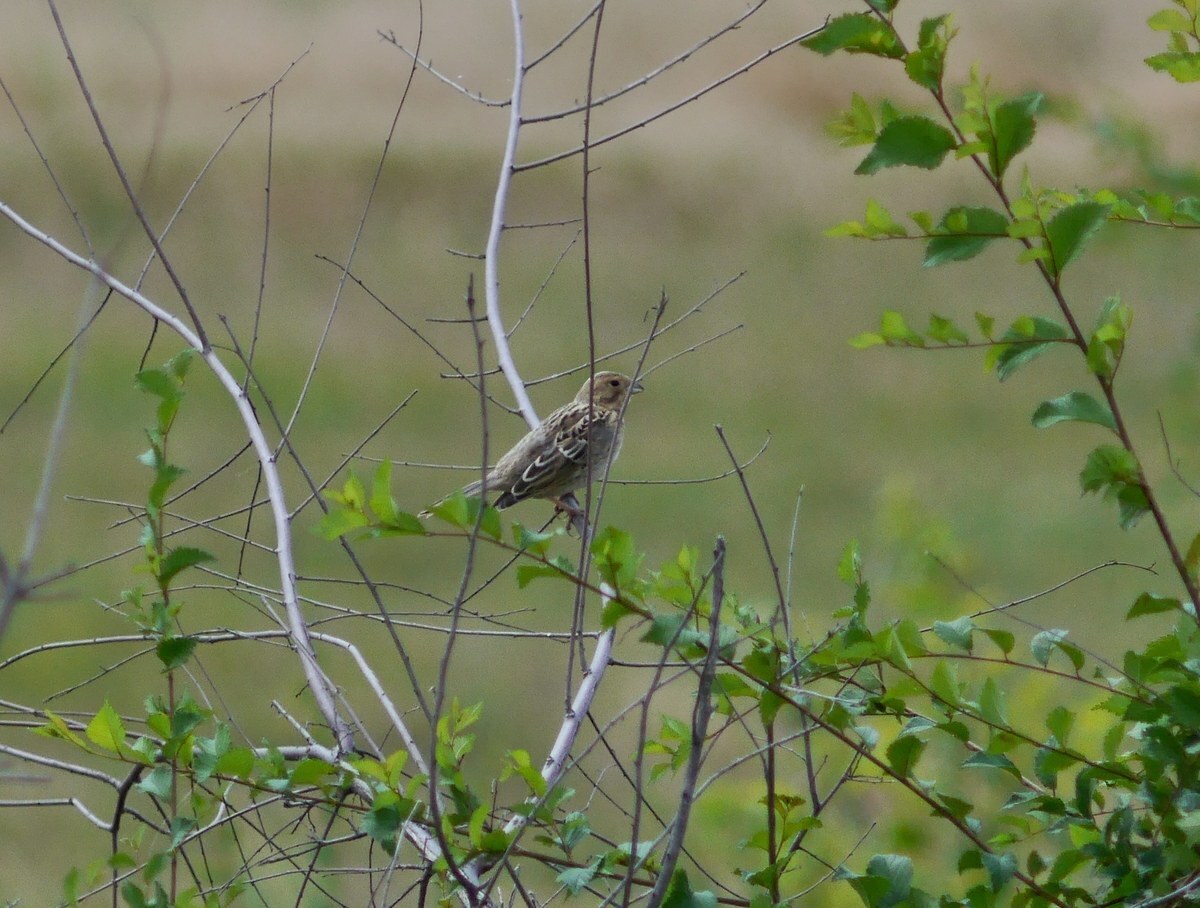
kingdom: Animalia
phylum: Chordata
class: Aves
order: Passeriformes
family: Emberizidae
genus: Emberiza
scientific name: Emberiza calandra
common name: Corn bunting
